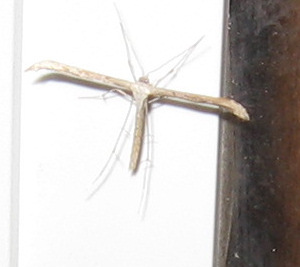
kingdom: Animalia
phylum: Arthropoda
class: Insecta
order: Lepidoptera
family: Pterophoridae
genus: Emmelina
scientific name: Emmelina monodactyla
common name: Common plume
